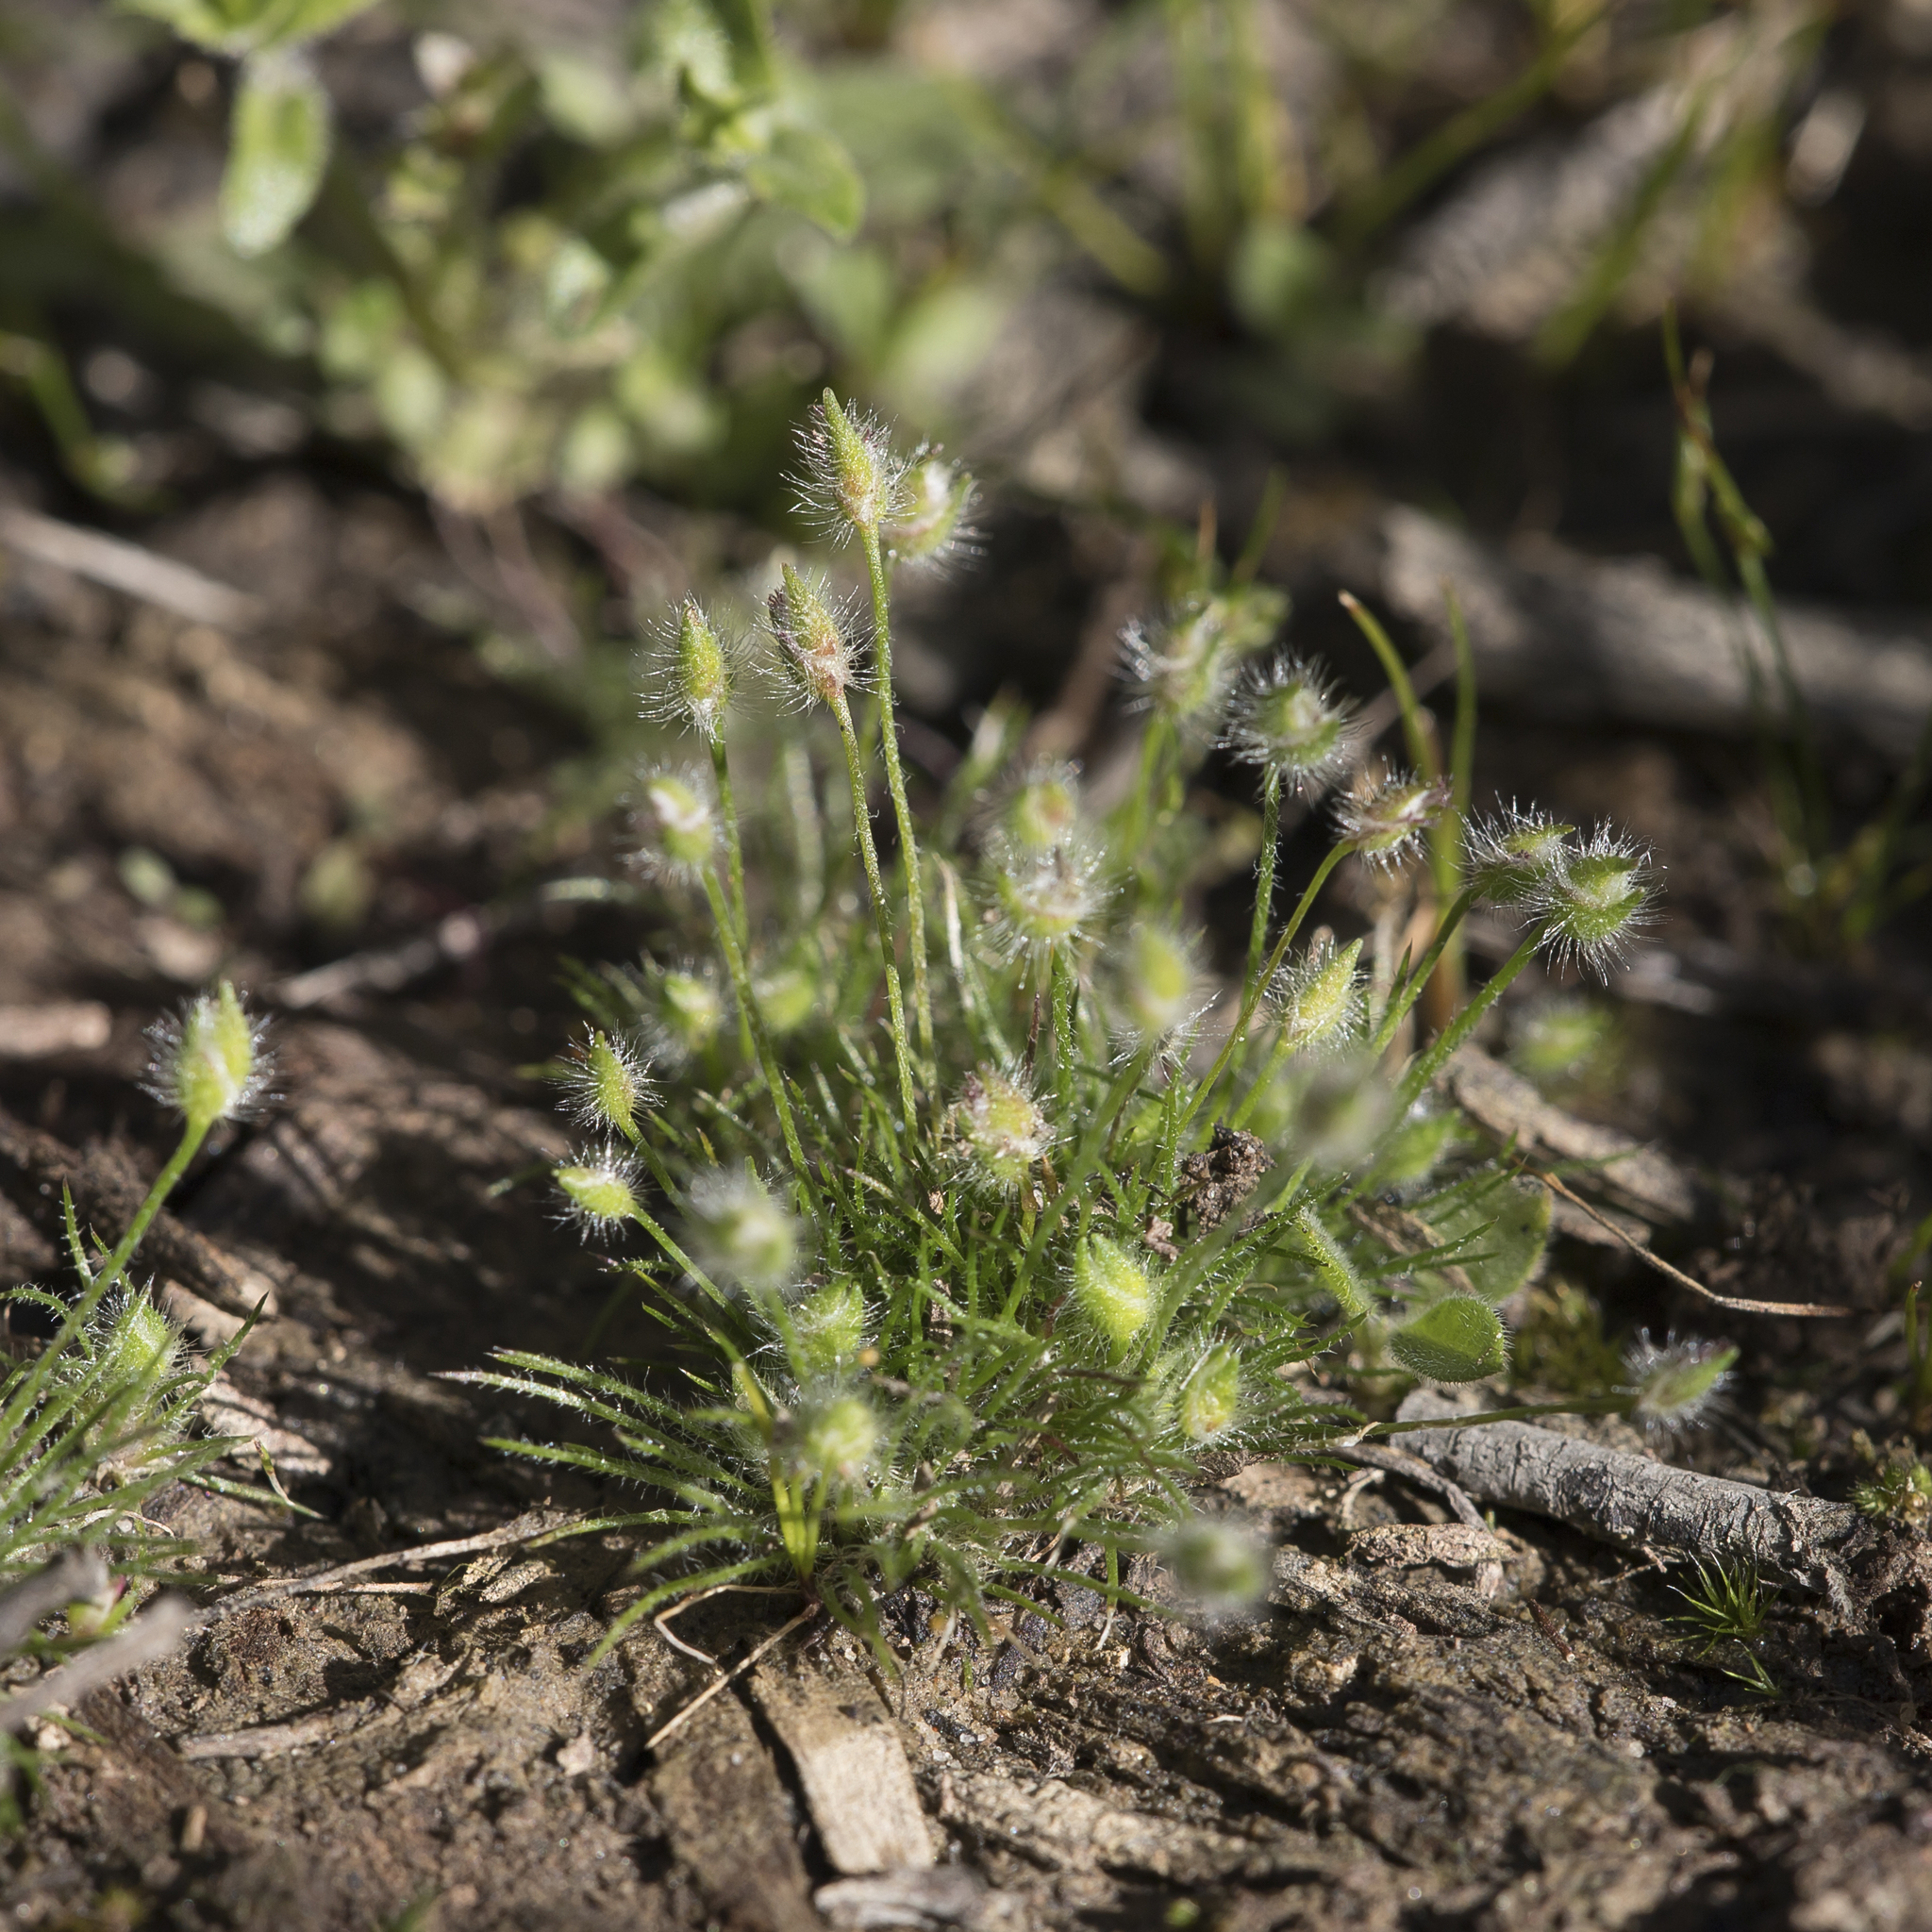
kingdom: Plantae
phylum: Tracheophyta
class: Liliopsida
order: Poales
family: Restionaceae
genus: Centrolepis
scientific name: Centrolepis strigosa
